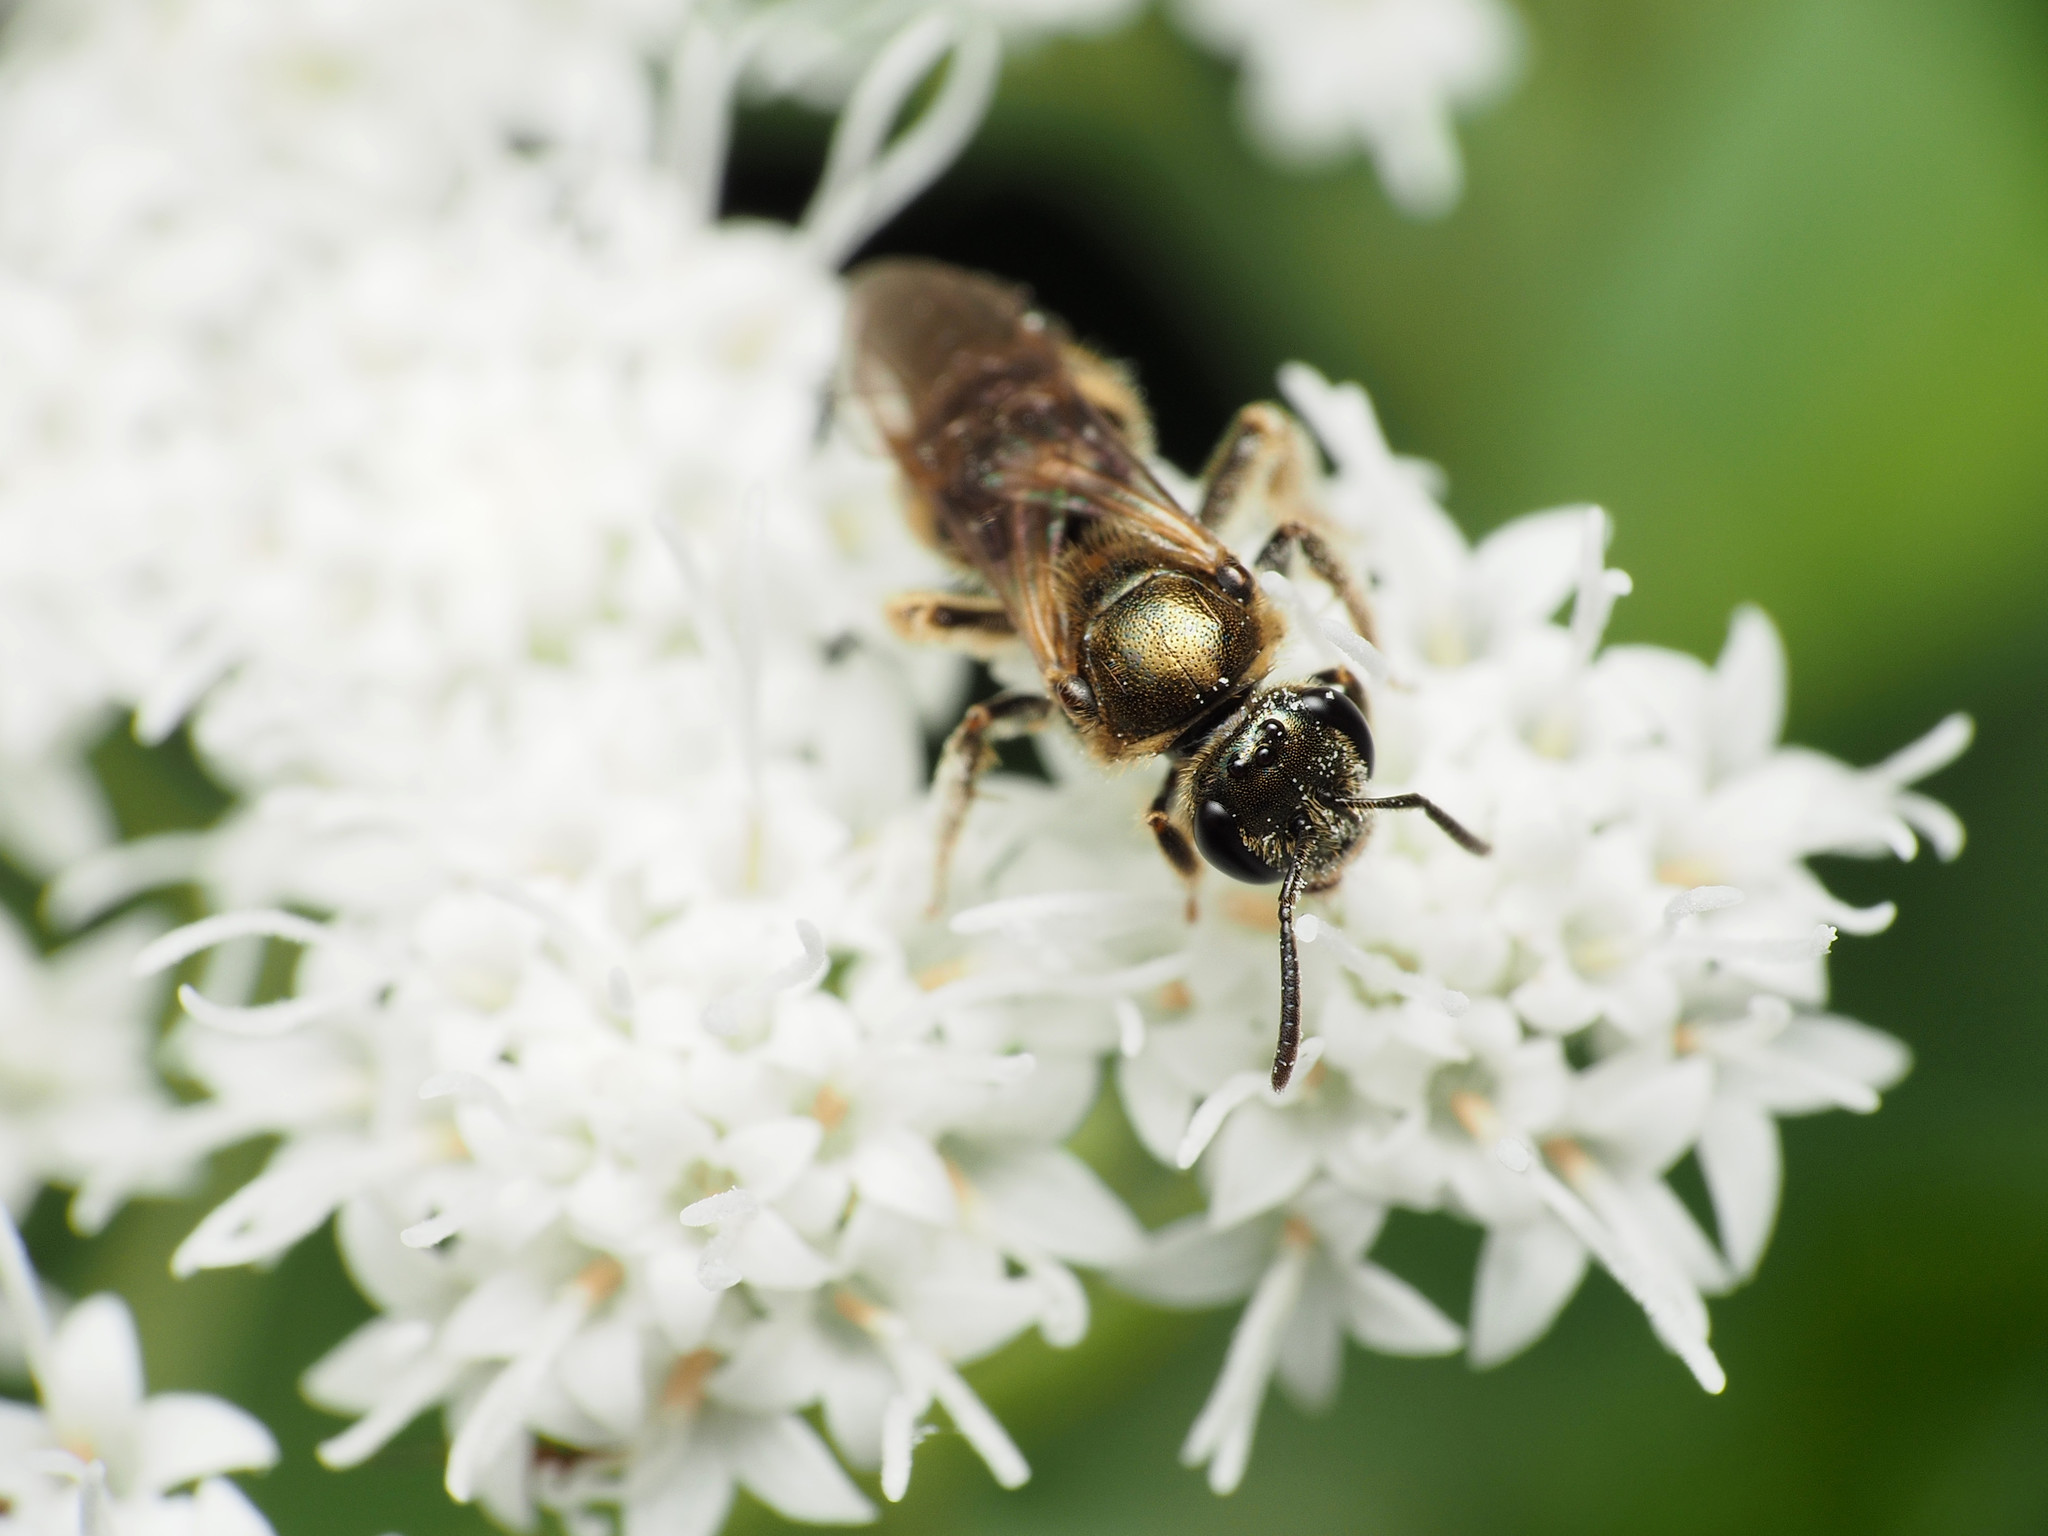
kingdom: Animalia
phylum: Arthropoda
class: Insecta
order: Hymenoptera
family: Halictidae
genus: Lasioglossum
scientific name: Lasioglossum cressonii
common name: Cresson's dialictus
